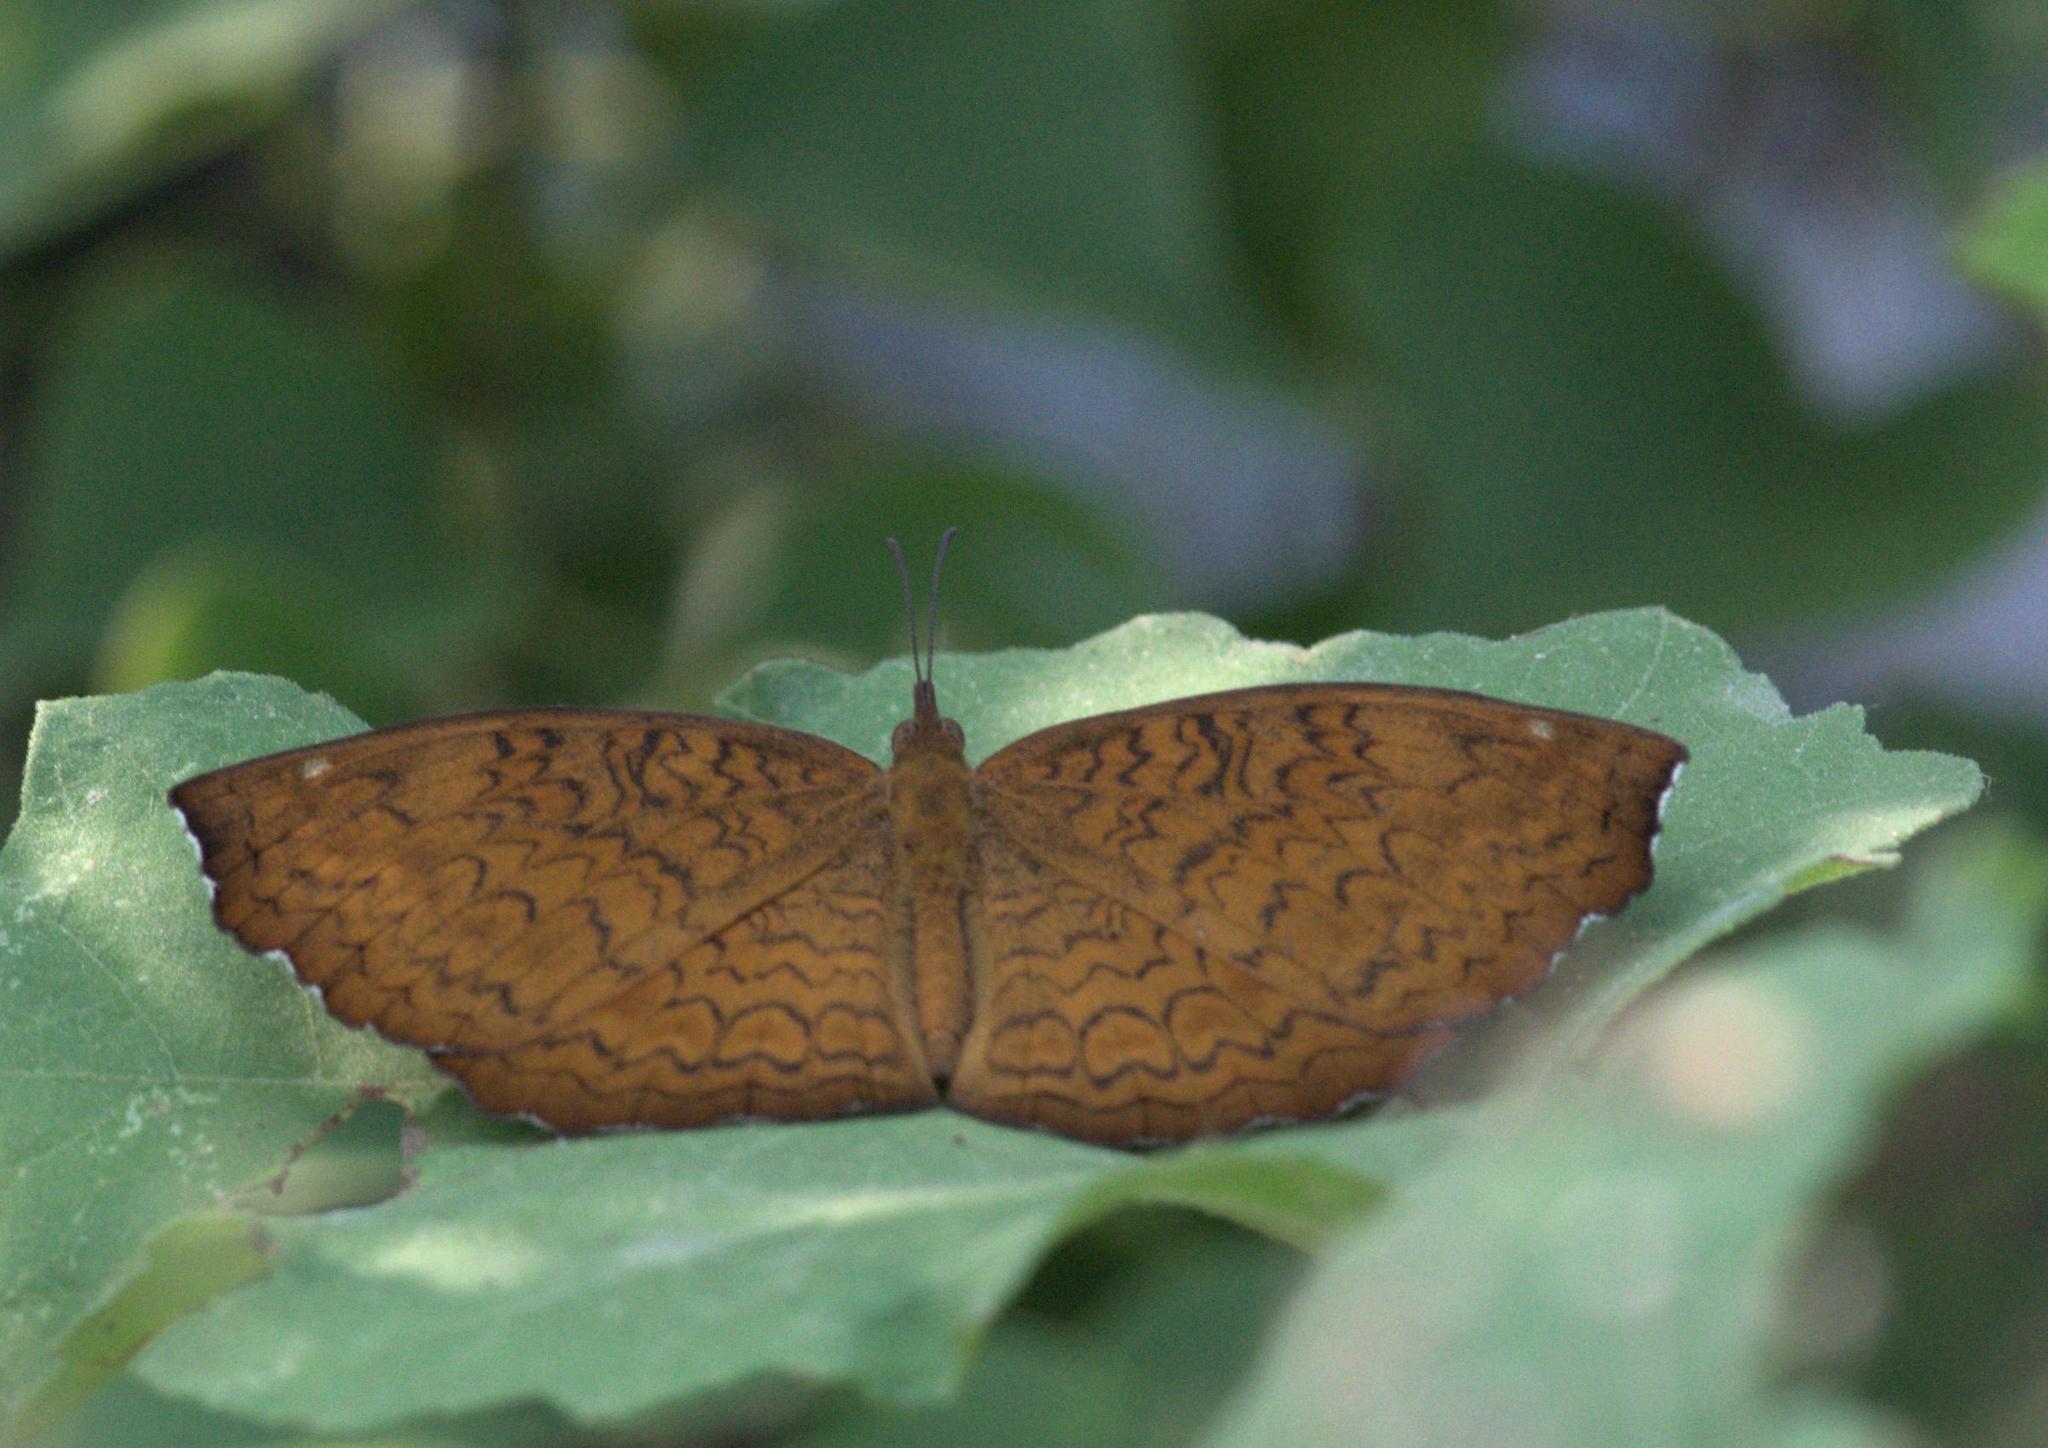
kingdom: Animalia
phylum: Arthropoda
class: Insecta
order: Lepidoptera
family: Nymphalidae
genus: Ariadne
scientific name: Ariadne merione
